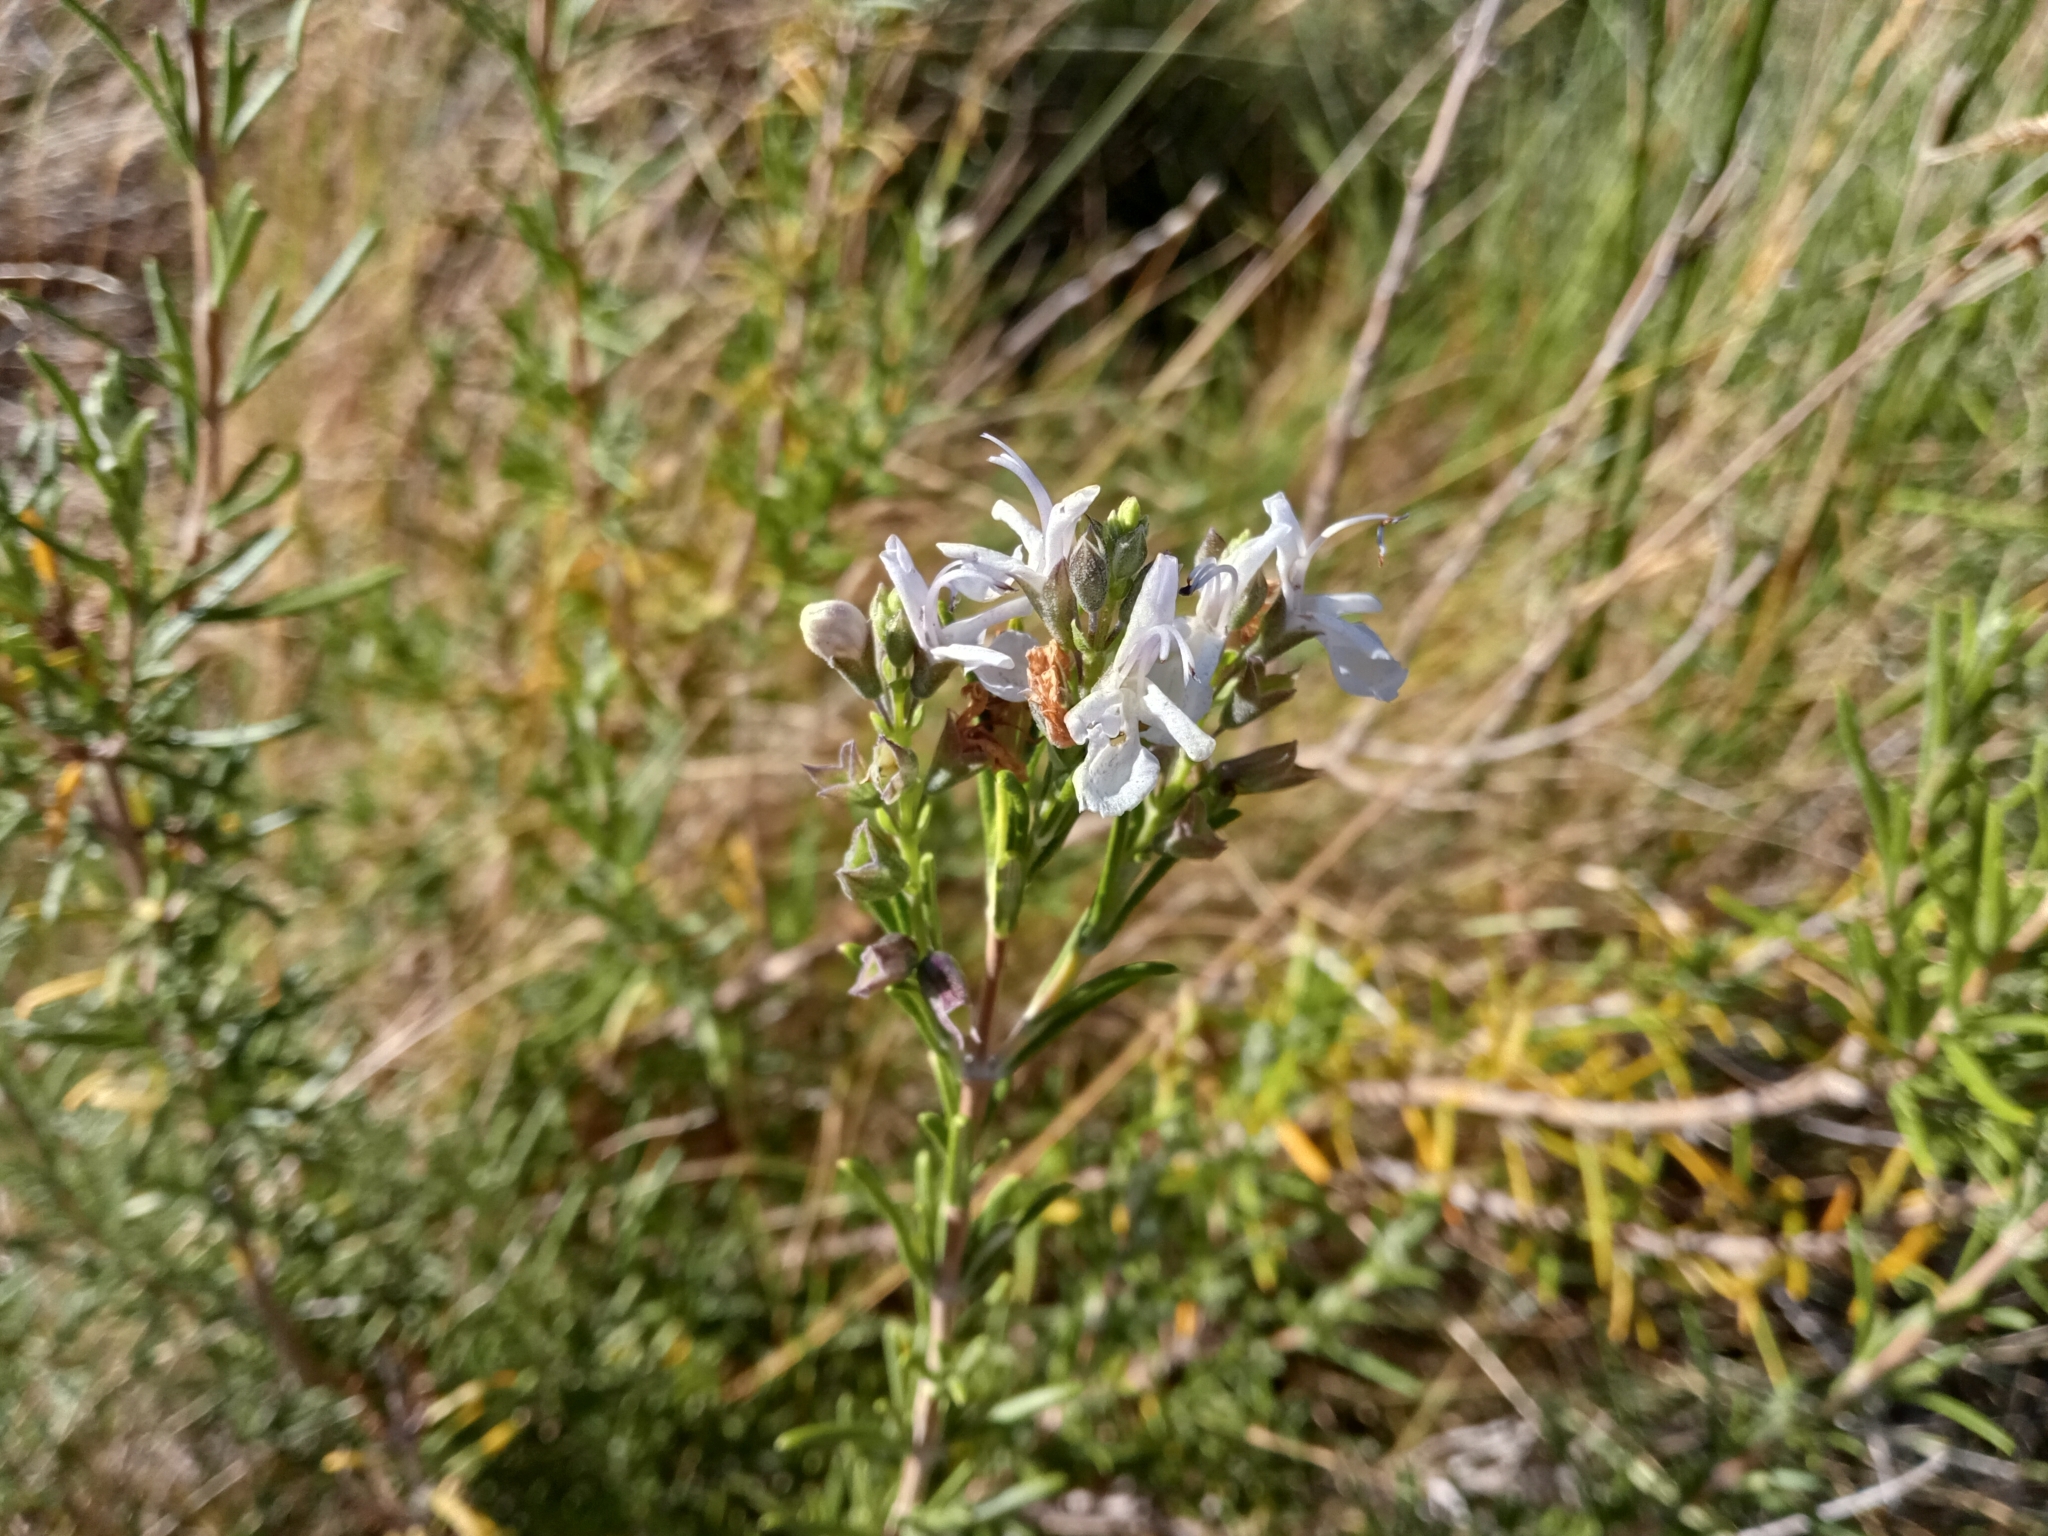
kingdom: Plantae
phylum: Tracheophyta
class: Magnoliopsida
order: Lamiales
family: Lamiaceae
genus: Salvia
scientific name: Salvia rosmarinus
